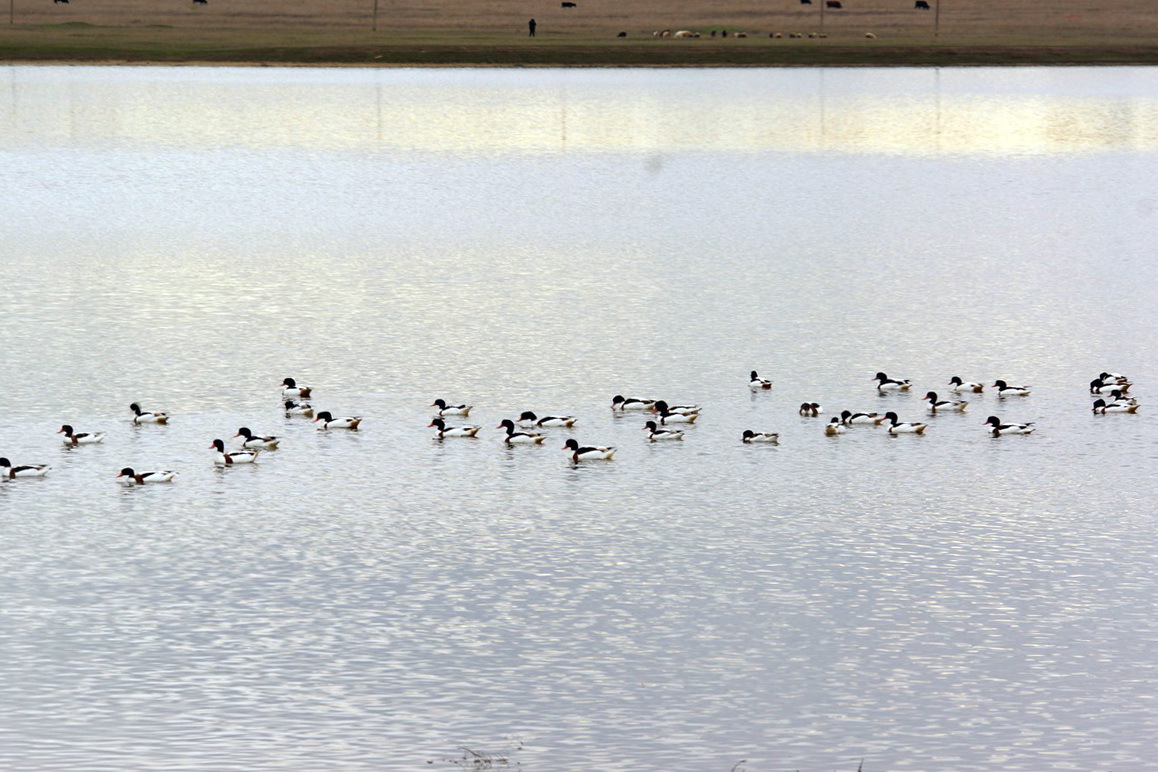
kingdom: Animalia
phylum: Chordata
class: Aves
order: Anseriformes
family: Anatidae
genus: Tadorna
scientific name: Tadorna tadorna
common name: Common shelduck
